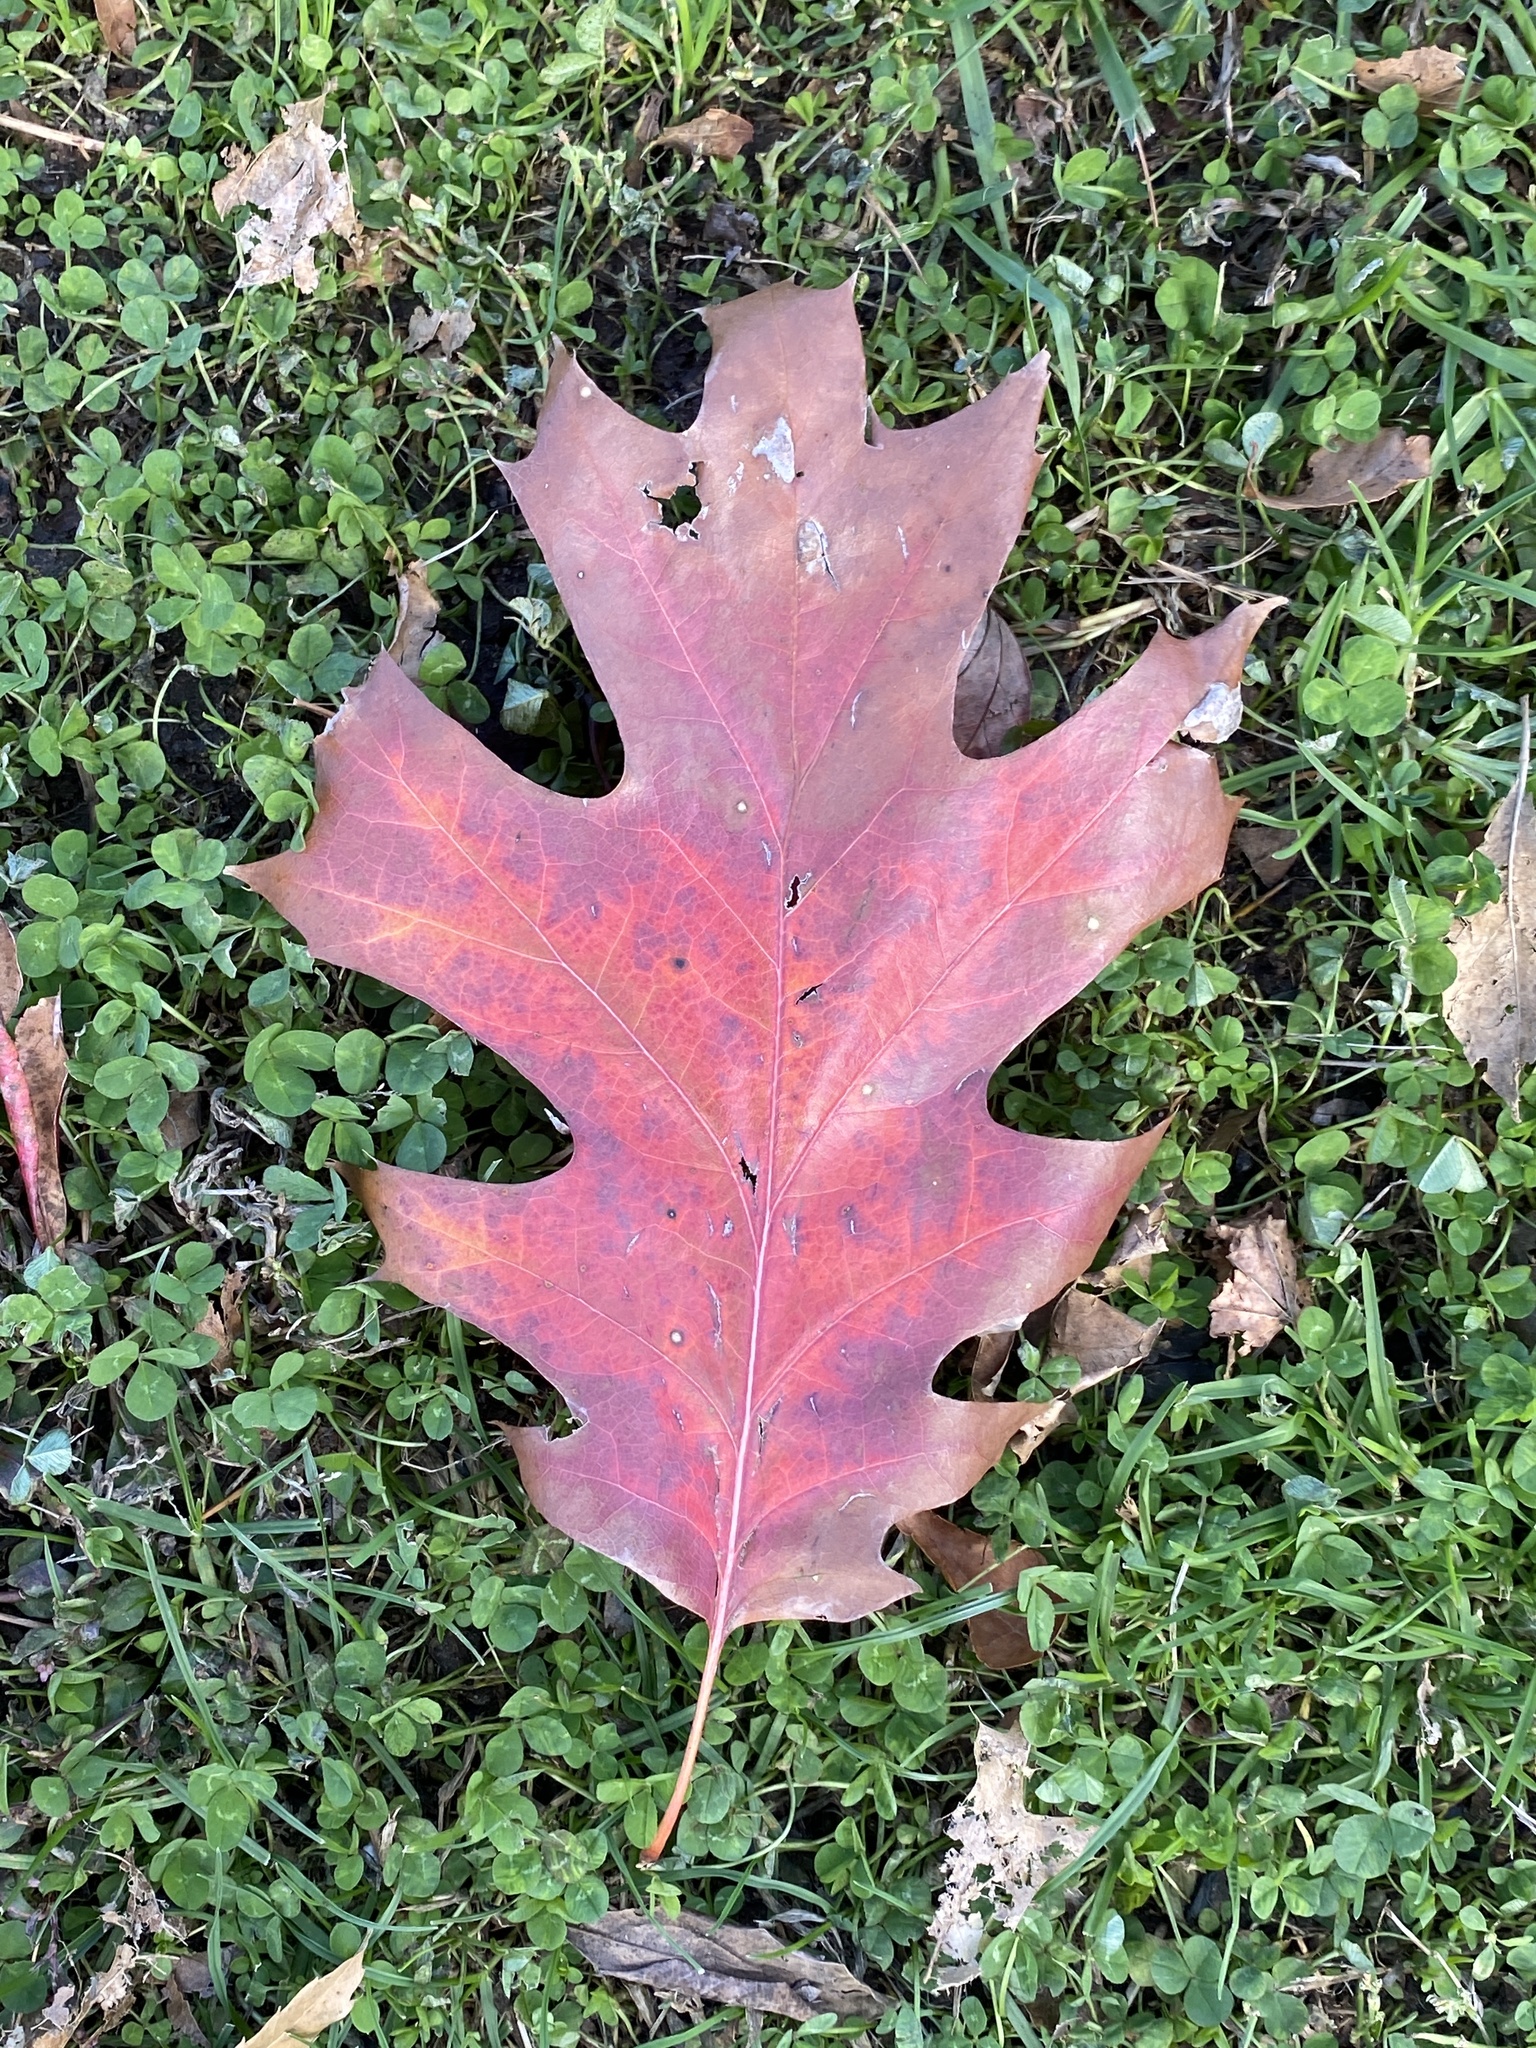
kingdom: Plantae
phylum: Tracheophyta
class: Magnoliopsida
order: Fagales
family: Fagaceae
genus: Quercus
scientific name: Quercus rubra
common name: Red oak
